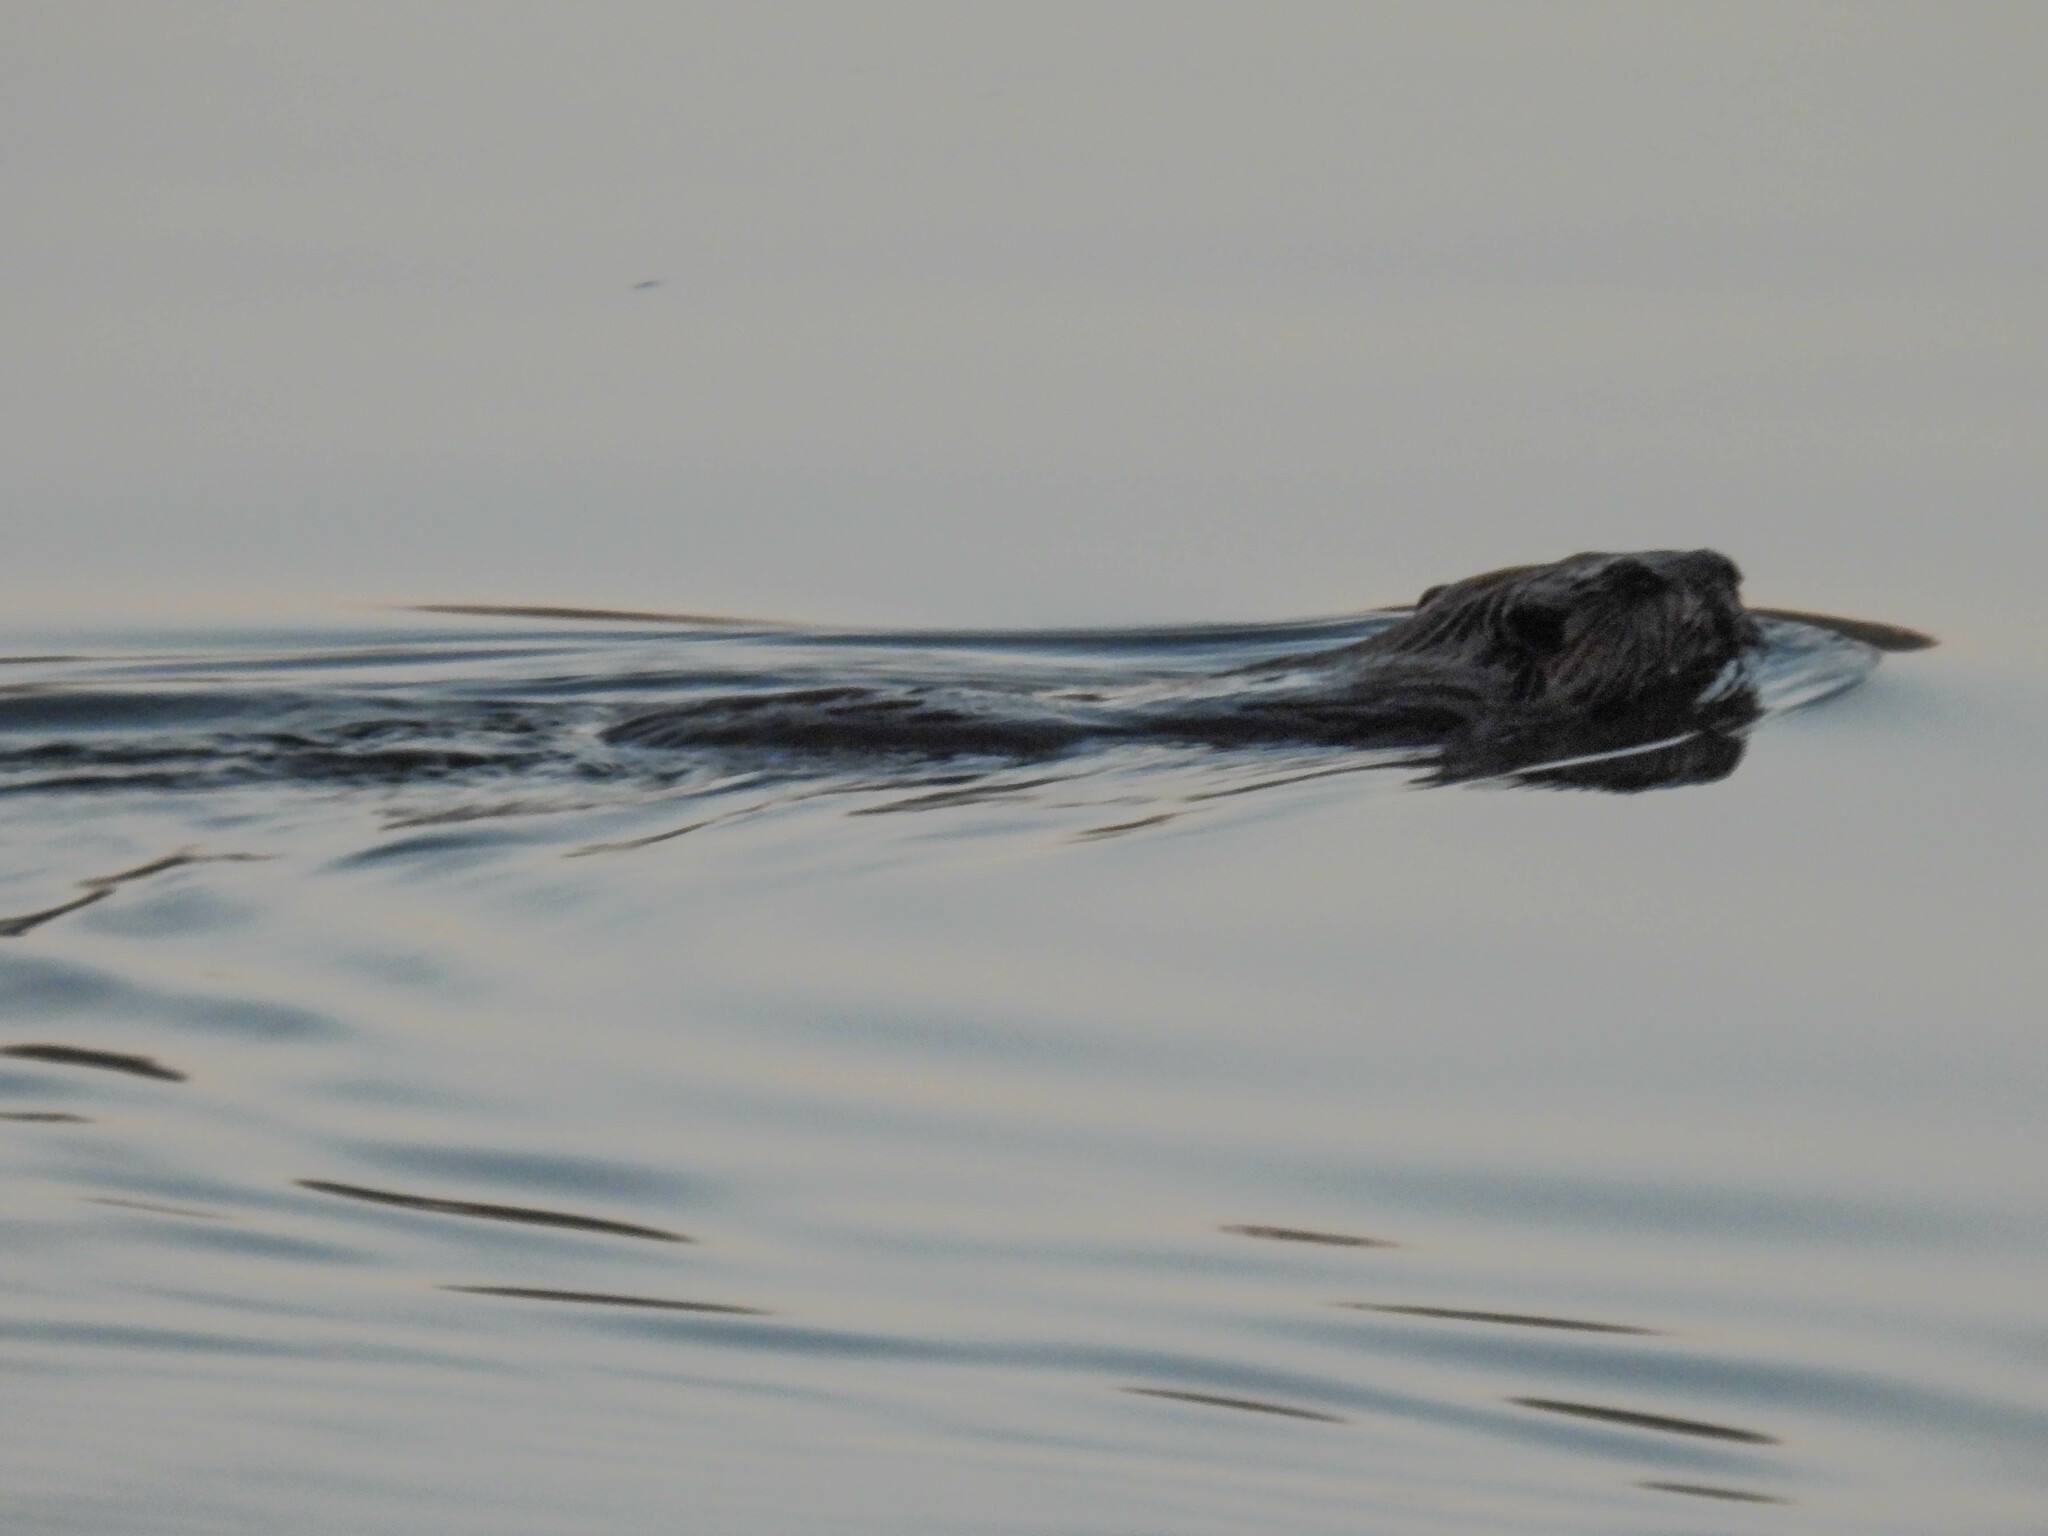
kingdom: Animalia
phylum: Chordata
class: Mammalia
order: Rodentia
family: Castoridae
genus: Castor
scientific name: Castor canadensis
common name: American beaver
